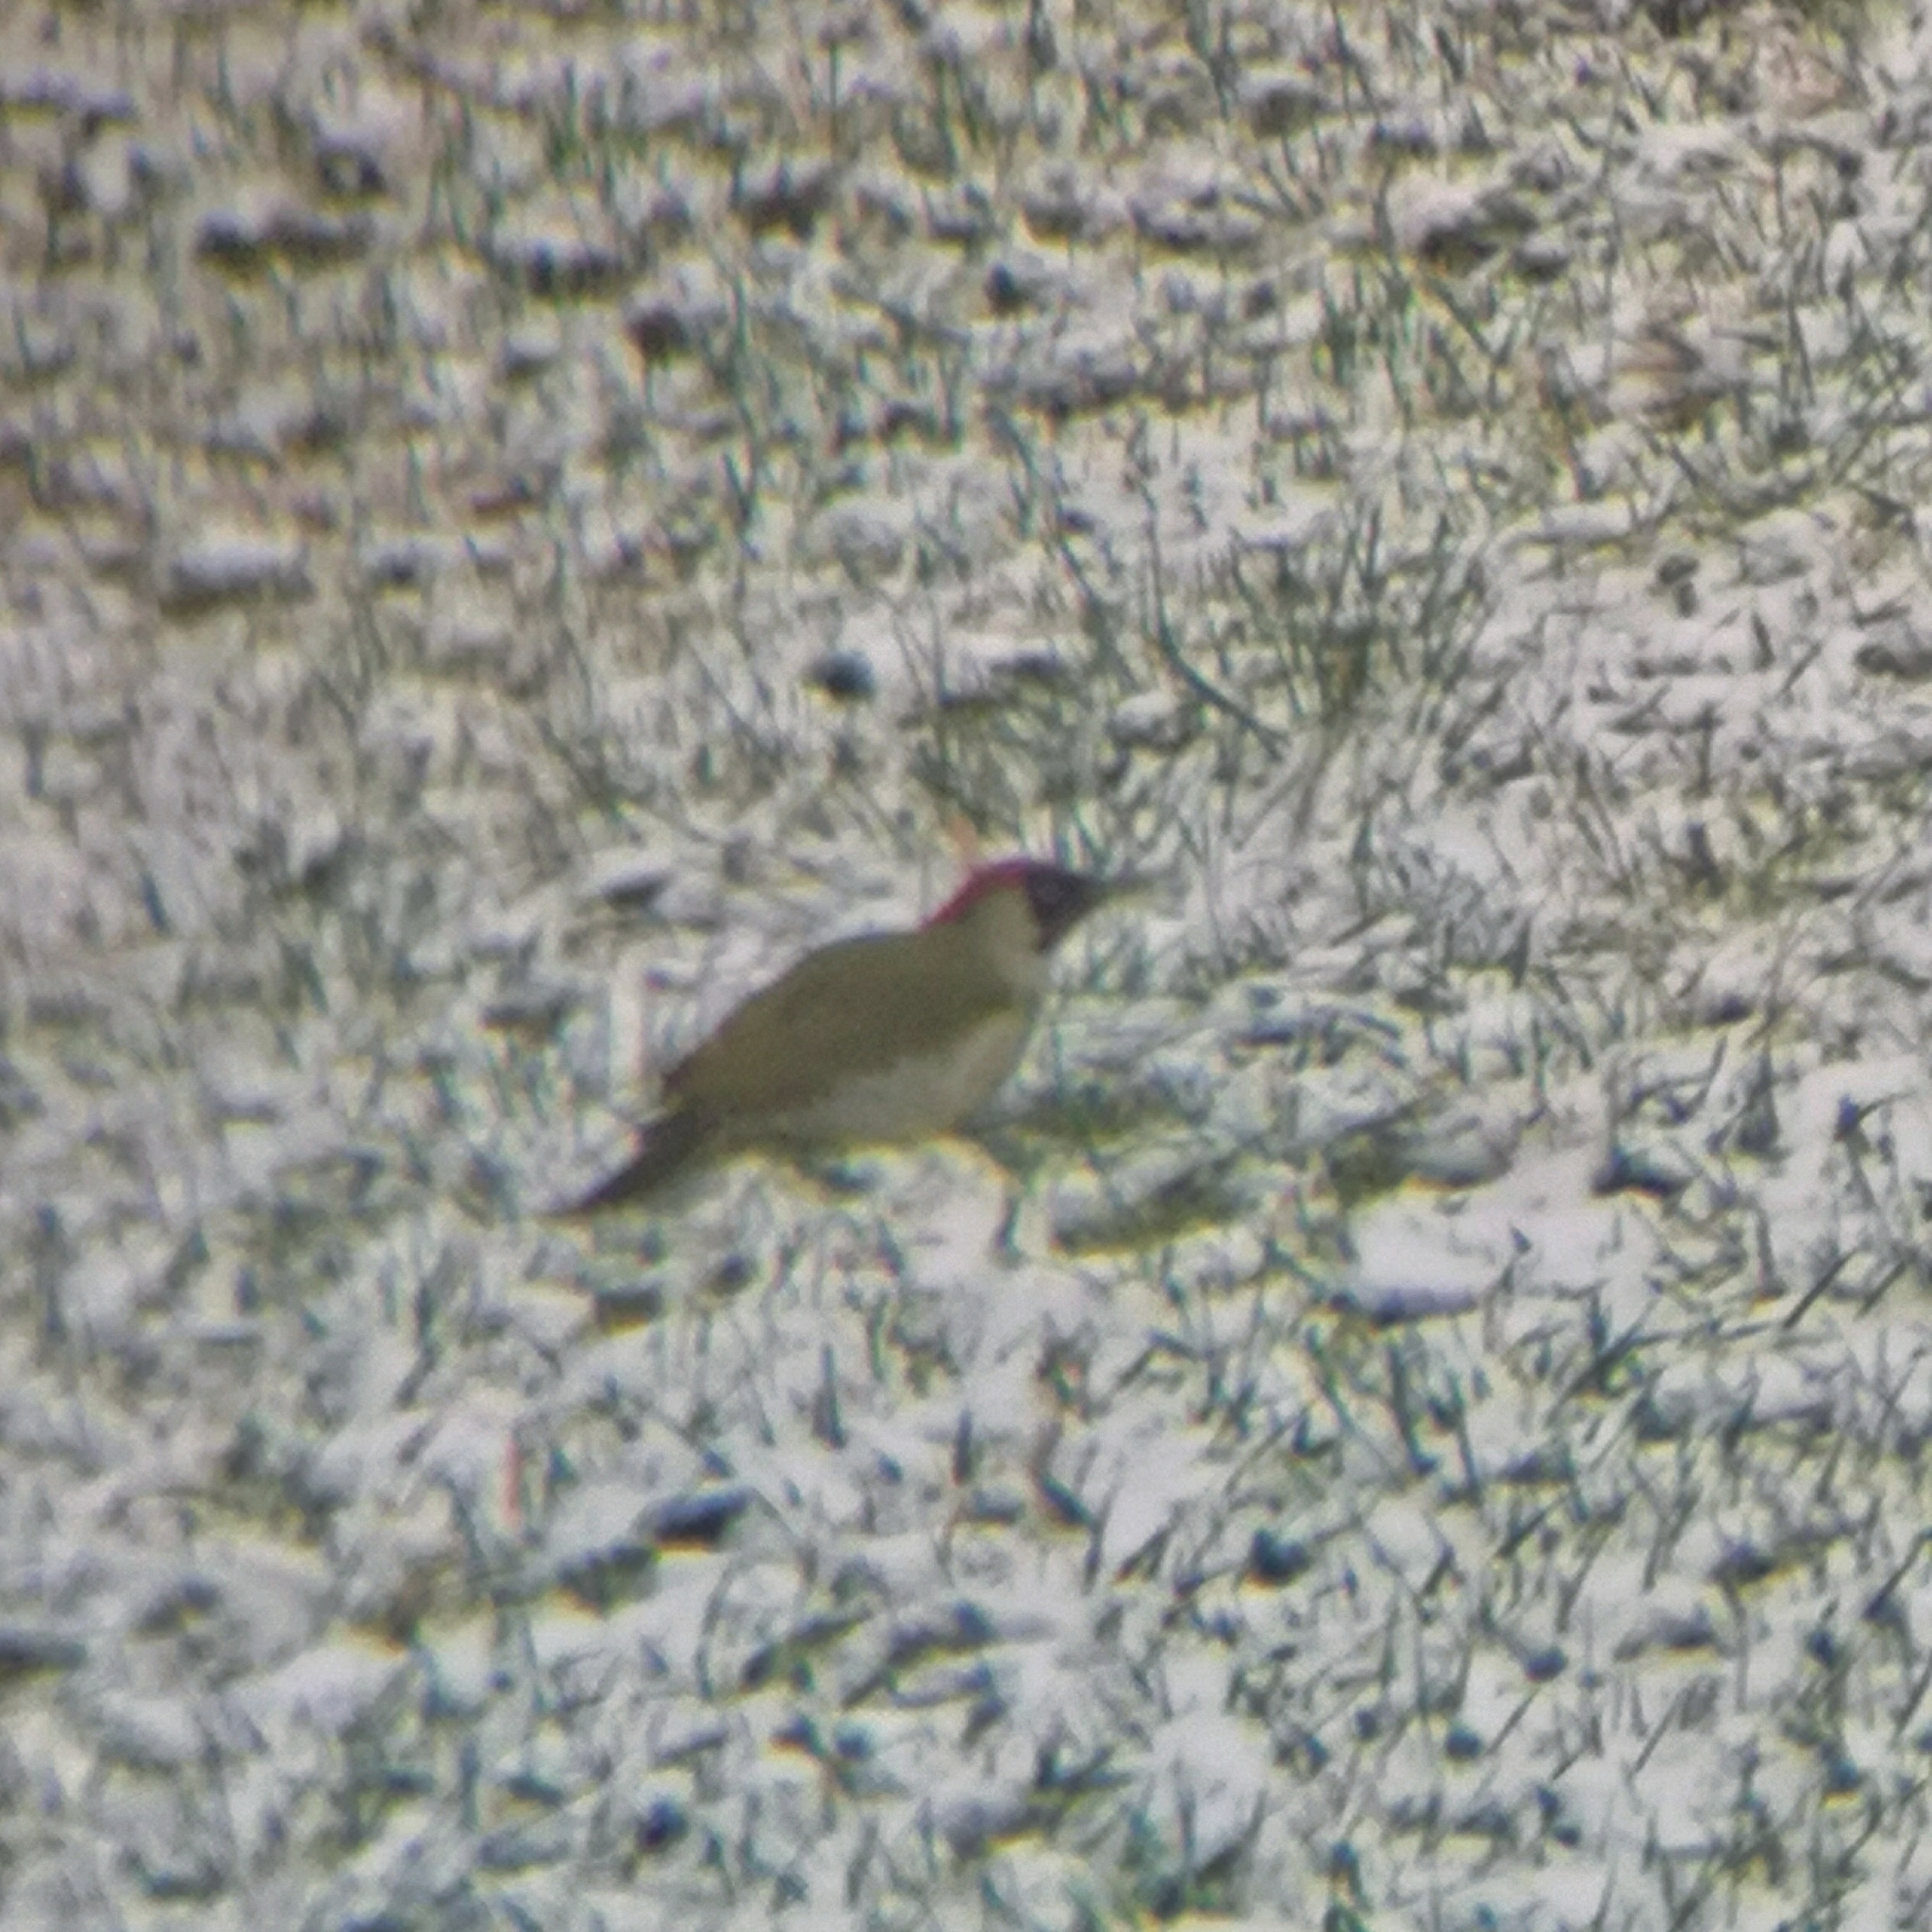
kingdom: Animalia
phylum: Chordata
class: Aves
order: Piciformes
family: Picidae
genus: Picus
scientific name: Picus viridis
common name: European green woodpecker
